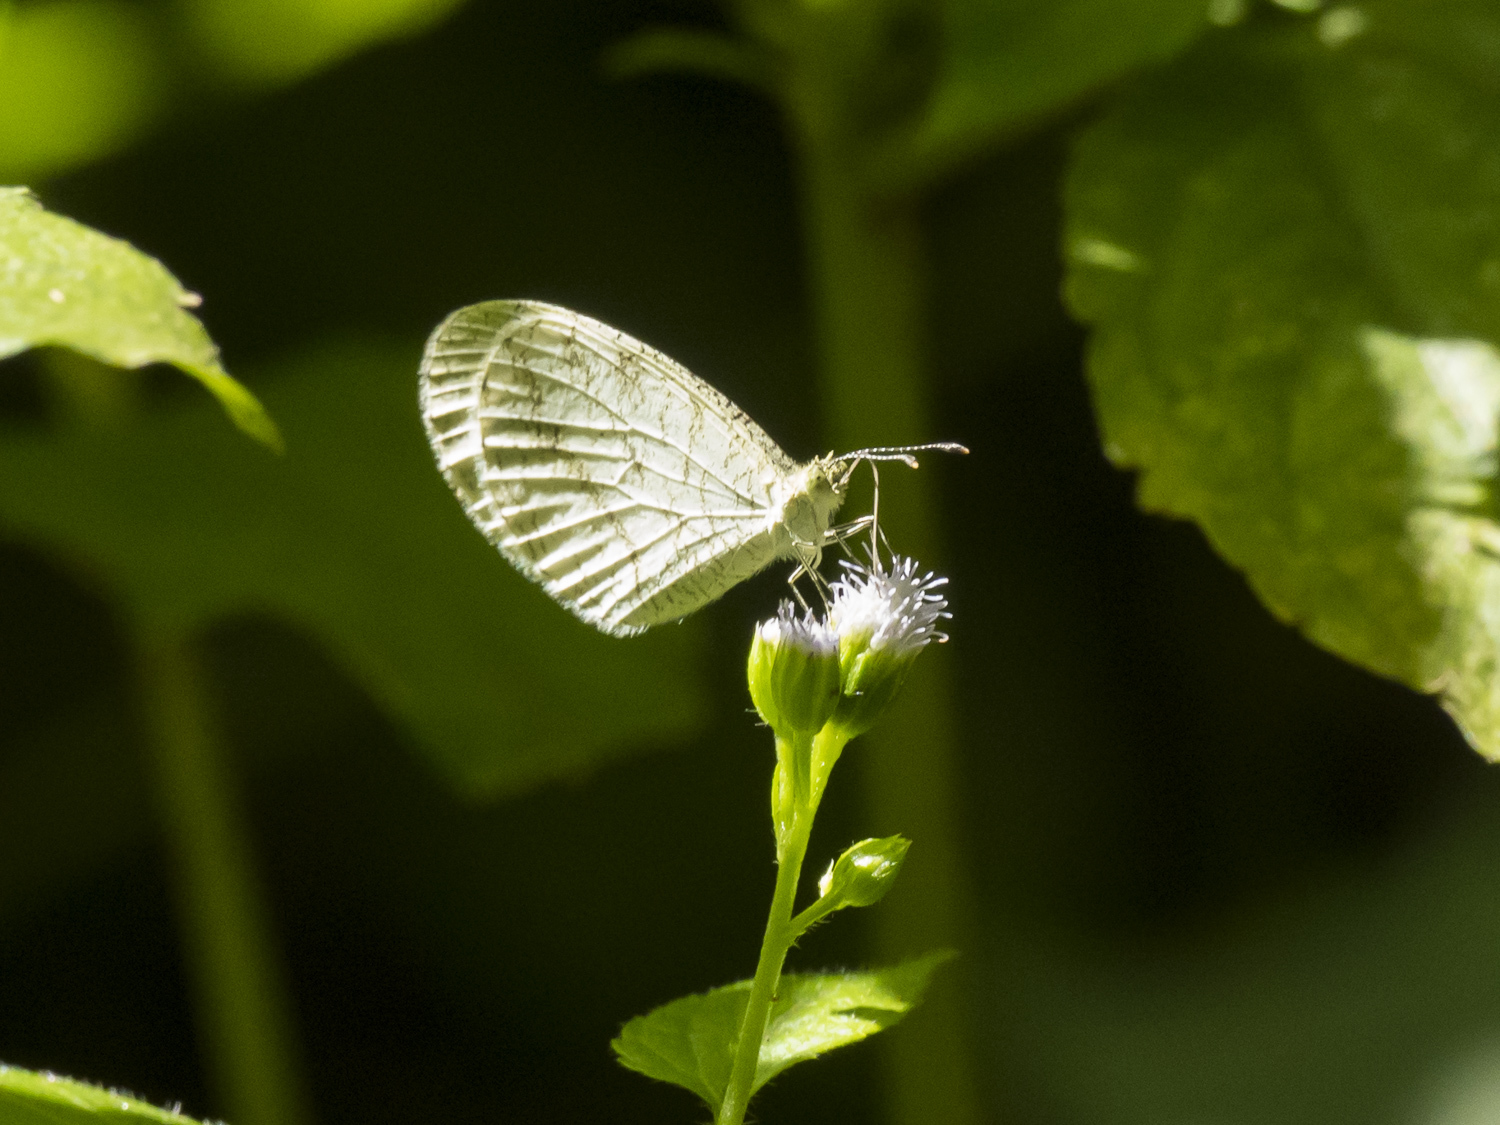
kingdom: Animalia
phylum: Arthropoda
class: Insecta
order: Lepidoptera
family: Pieridae
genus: Leptosia
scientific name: Leptosia nina
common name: Psyche
